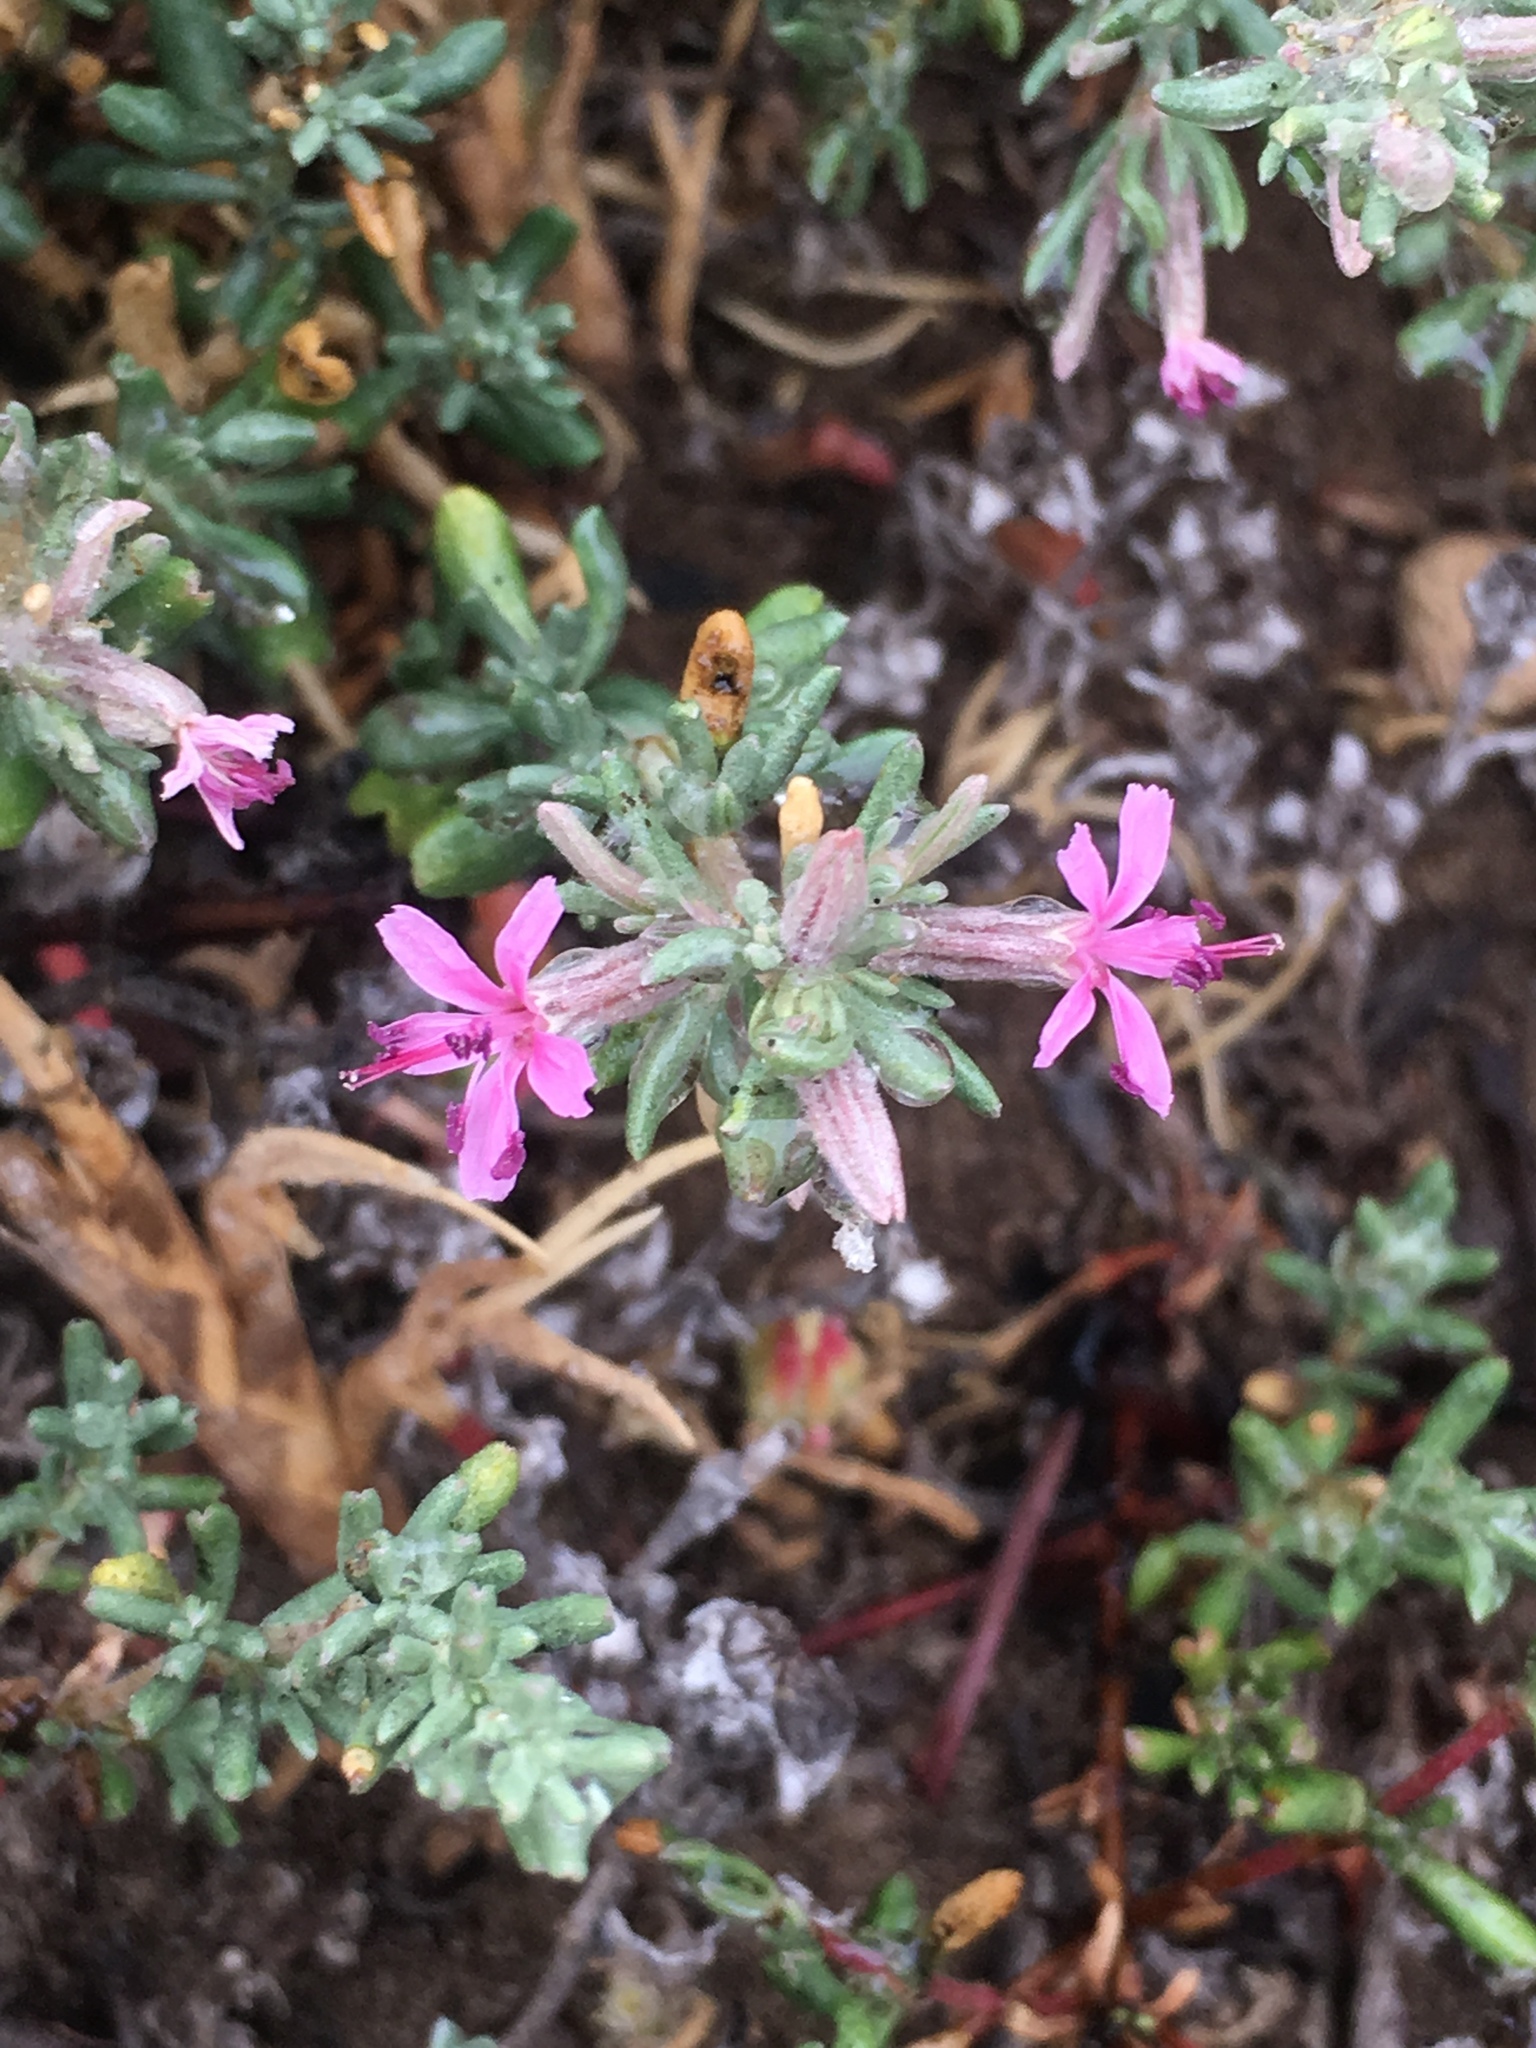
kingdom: Plantae
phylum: Tracheophyta
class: Magnoliopsida
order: Caryophyllales
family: Frankeniaceae
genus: Frankenia
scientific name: Frankenia salina
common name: Alkali seaheath
